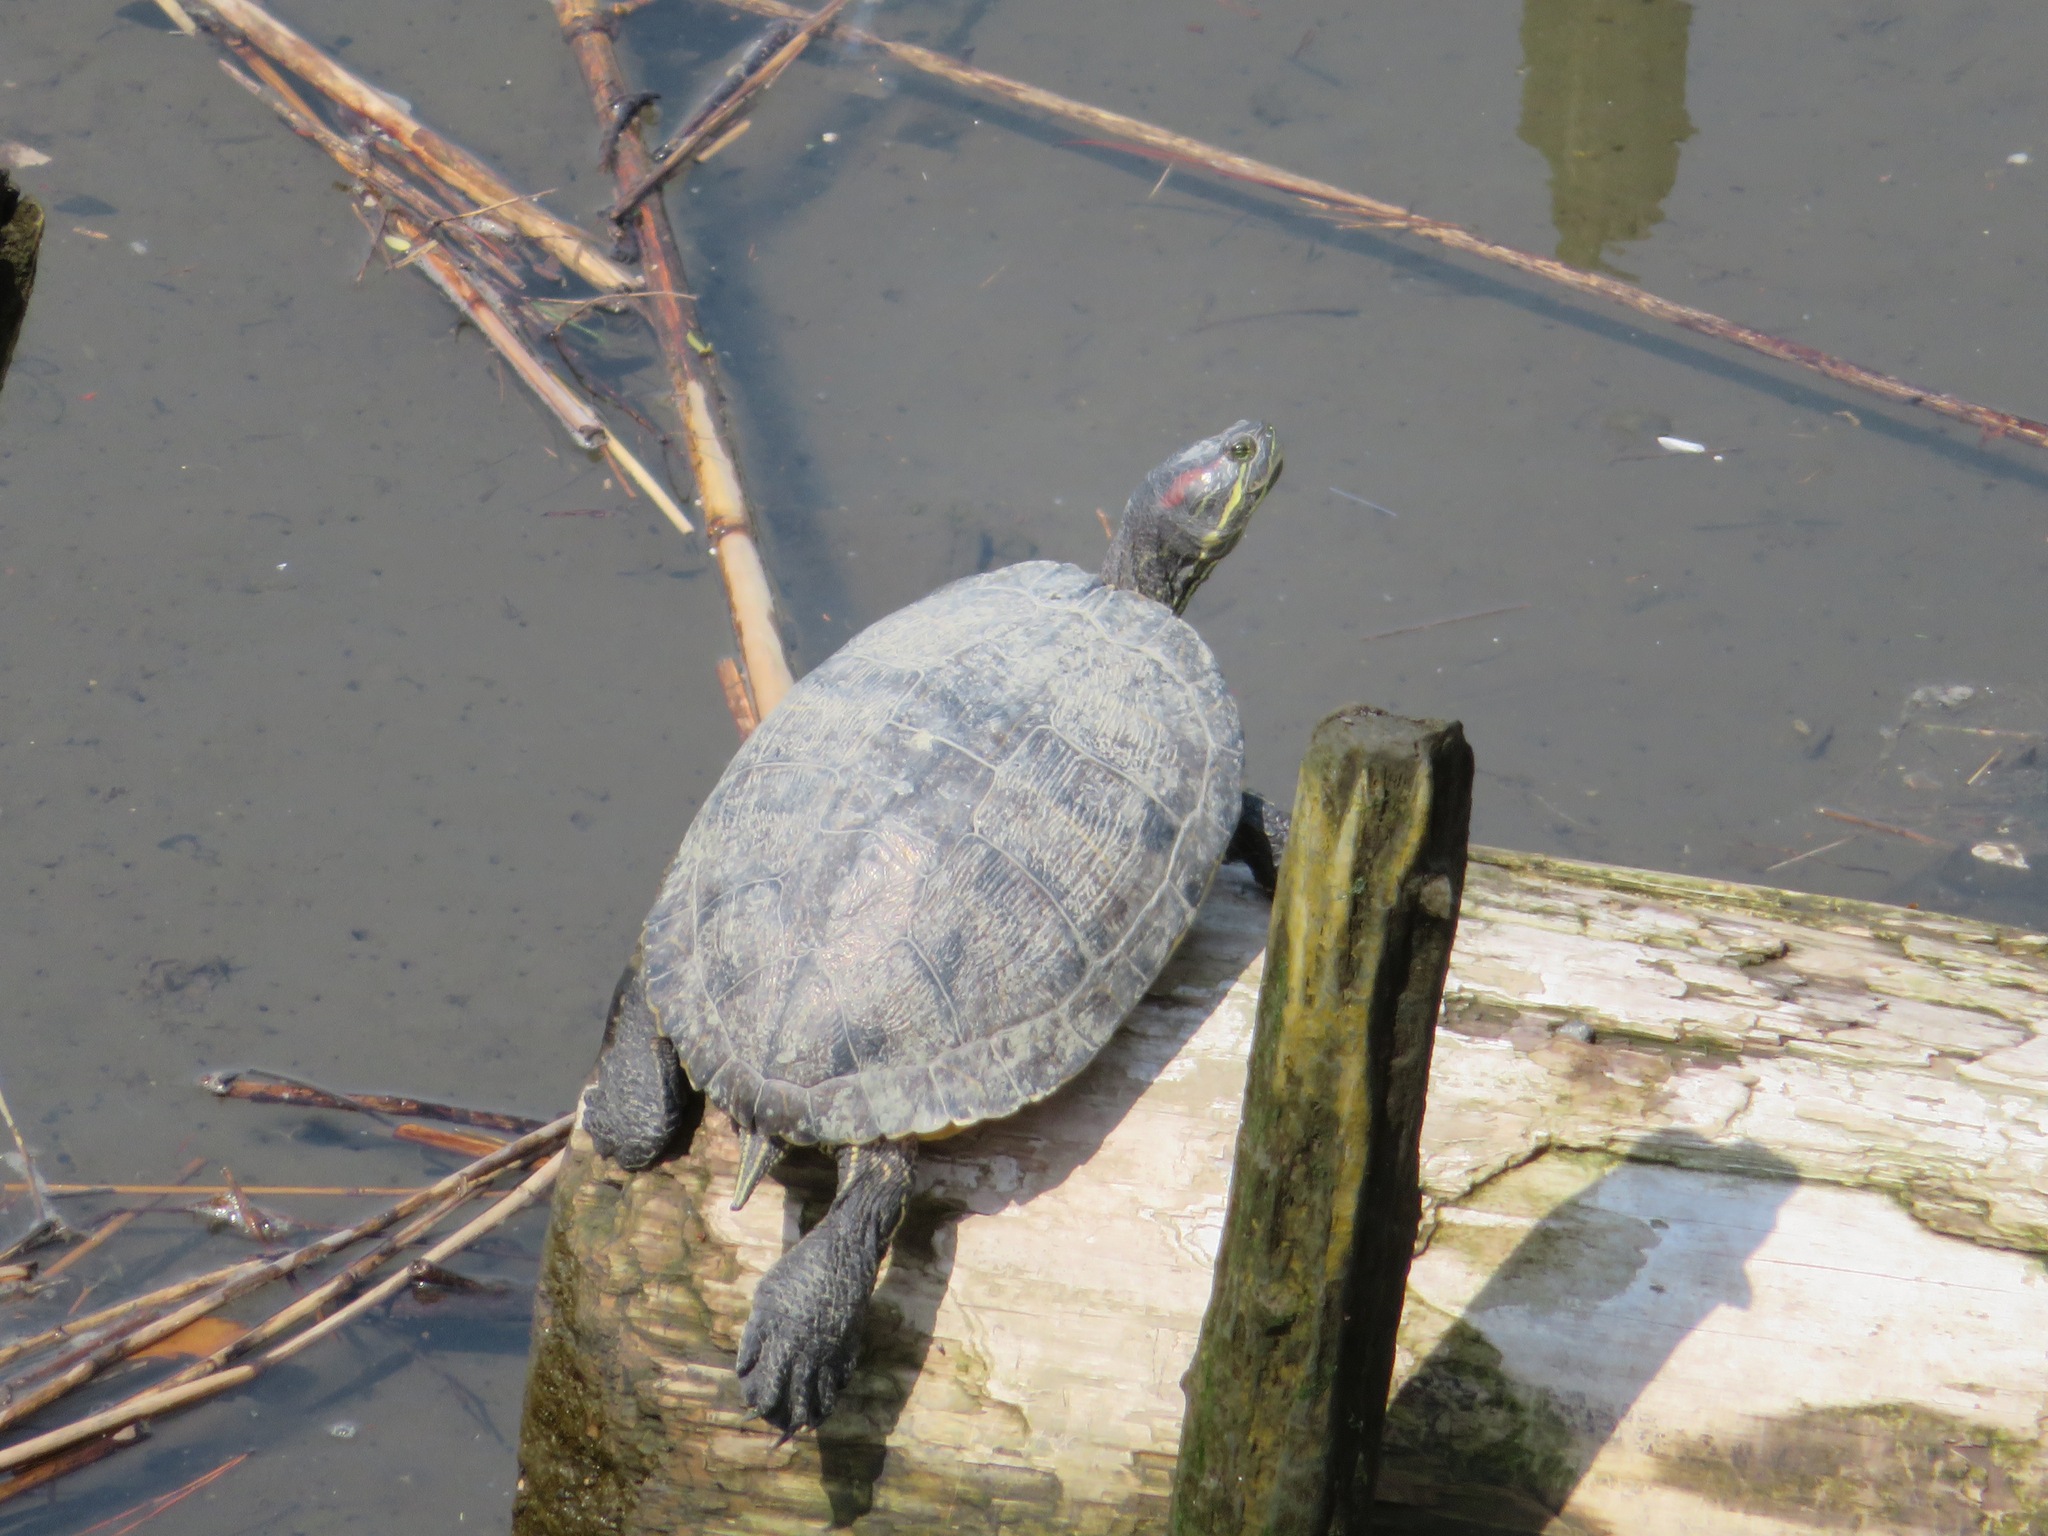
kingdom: Animalia
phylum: Chordata
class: Testudines
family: Emydidae
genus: Trachemys
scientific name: Trachemys scripta
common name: Slider
